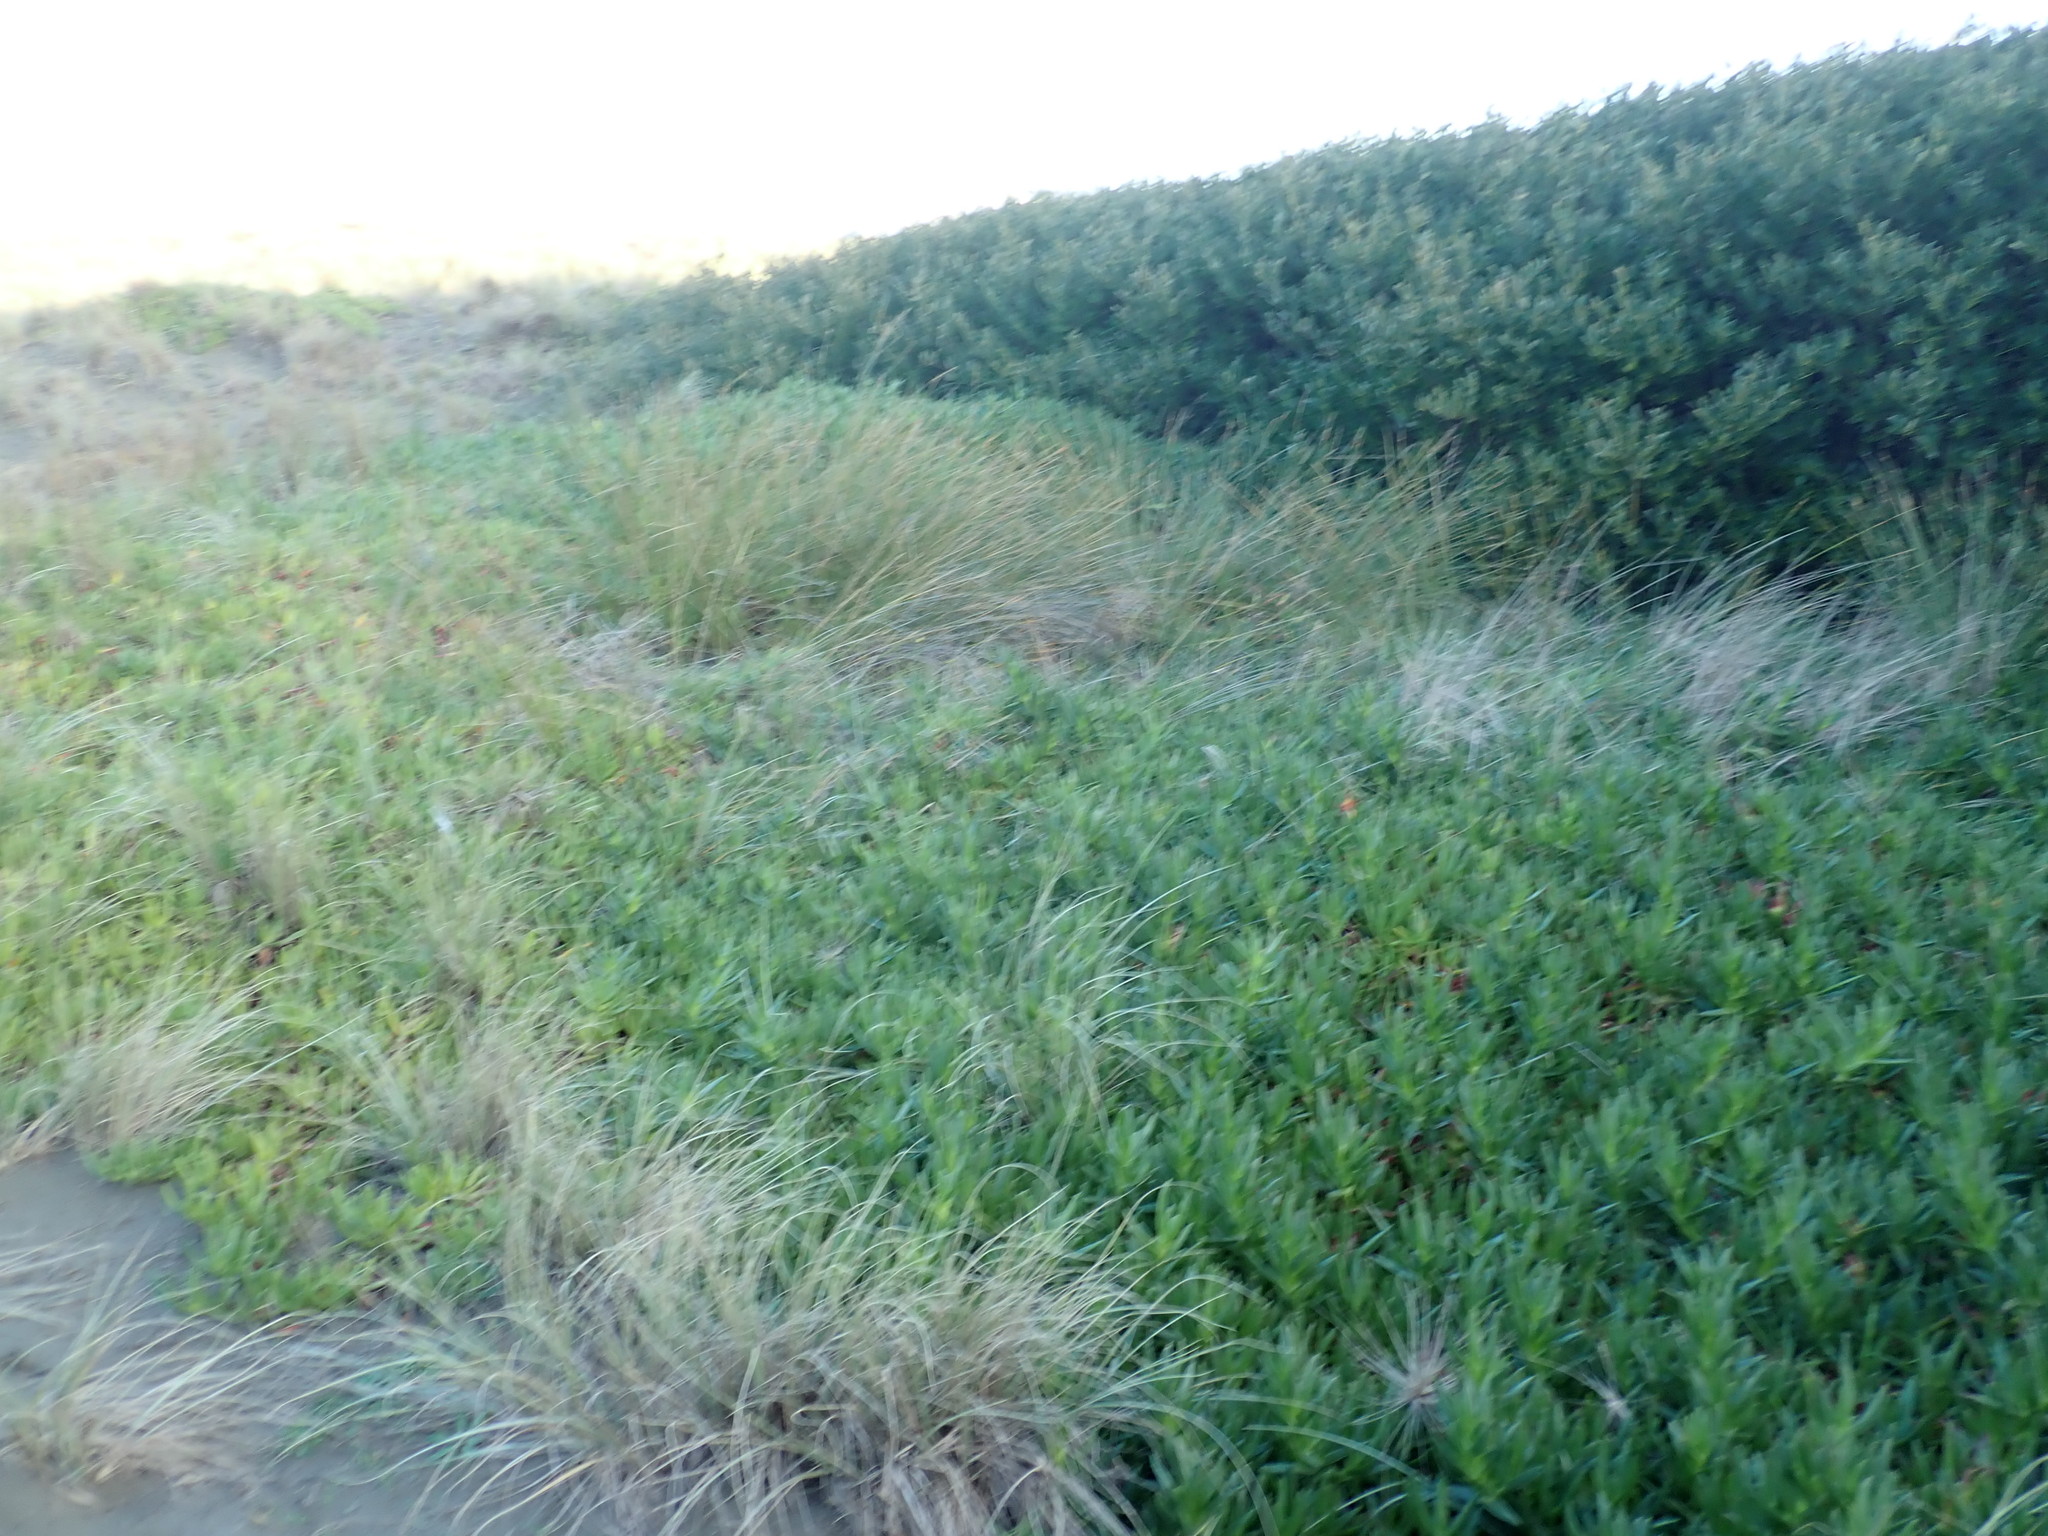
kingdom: Plantae
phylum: Tracheophyta
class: Magnoliopsida
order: Caryophyllales
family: Aizoaceae
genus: Carpobrotus
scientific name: Carpobrotus edulis
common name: Hottentot-fig
